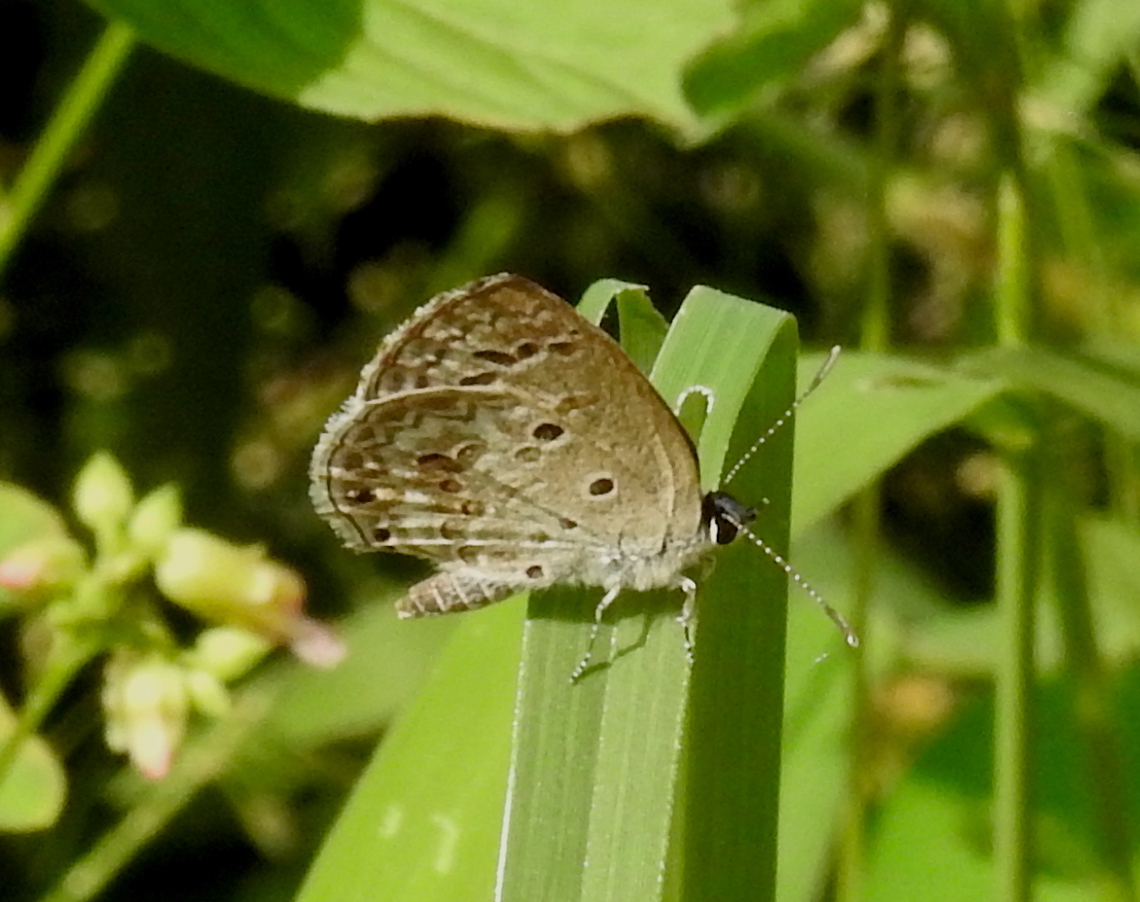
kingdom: Animalia
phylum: Arthropoda
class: Insecta
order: Lepidoptera
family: Lycaenidae
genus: Chilades
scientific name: Chilades laius
